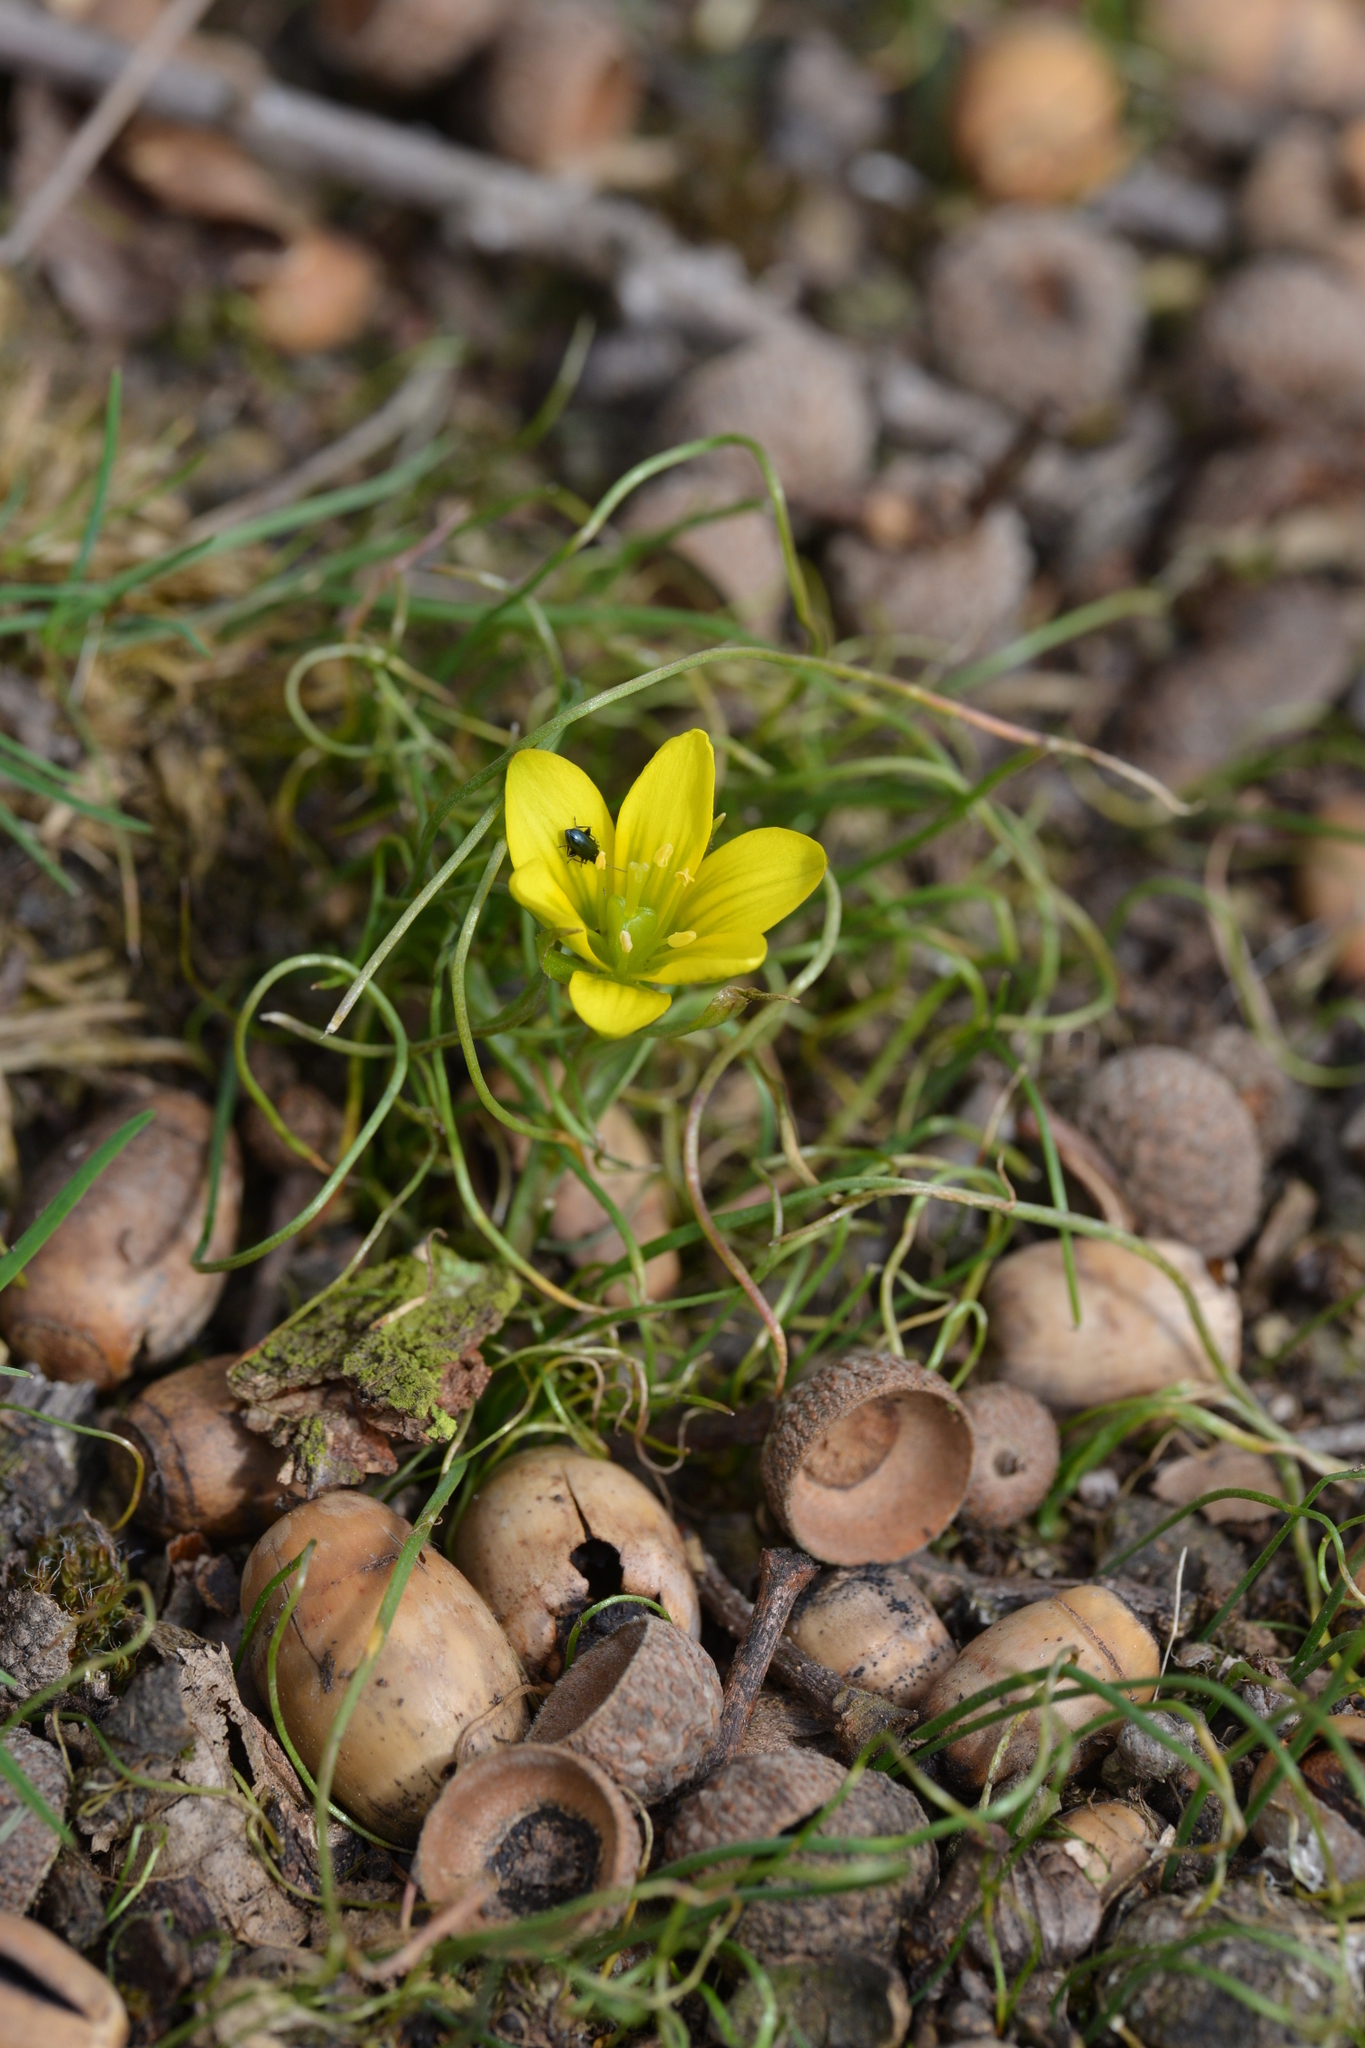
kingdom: Plantae
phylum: Tracheophyta
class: Liliopsida
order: Liliales
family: Liliaceae
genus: Gagea
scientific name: Gagea bohemica
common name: Early star-of-bethlehem
